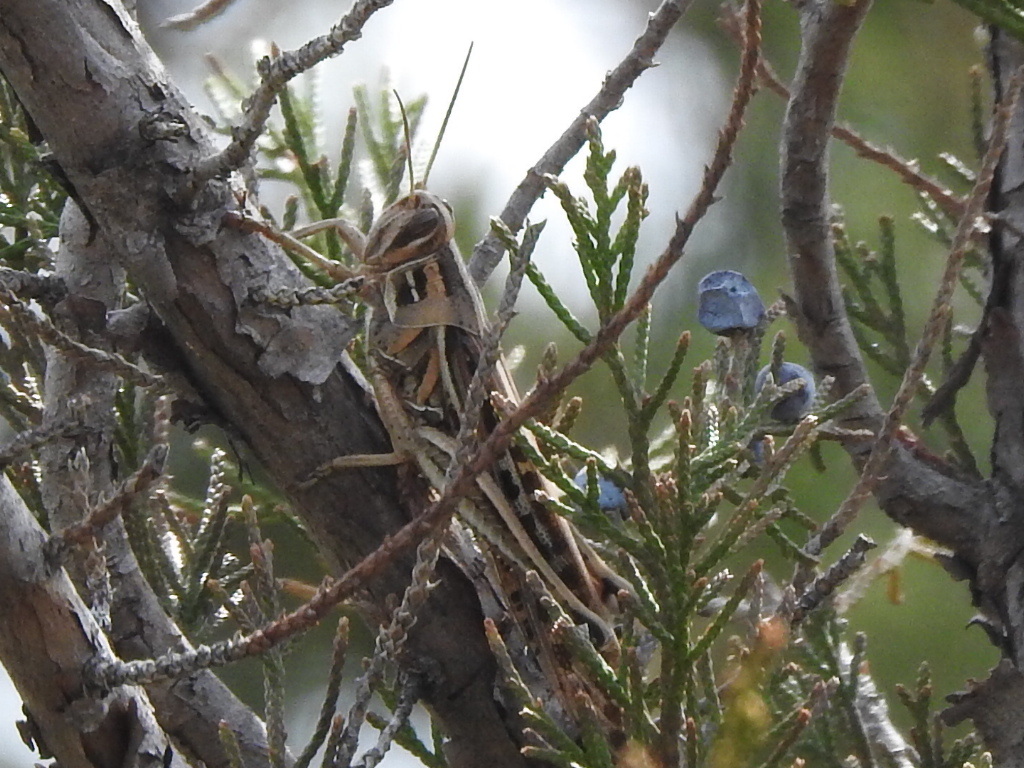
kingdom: Animalia
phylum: Arthropoda
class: Insecta
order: Orthoptera
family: Acrididae
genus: Schistocerca
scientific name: Schistocerca americana
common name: American bird locust
